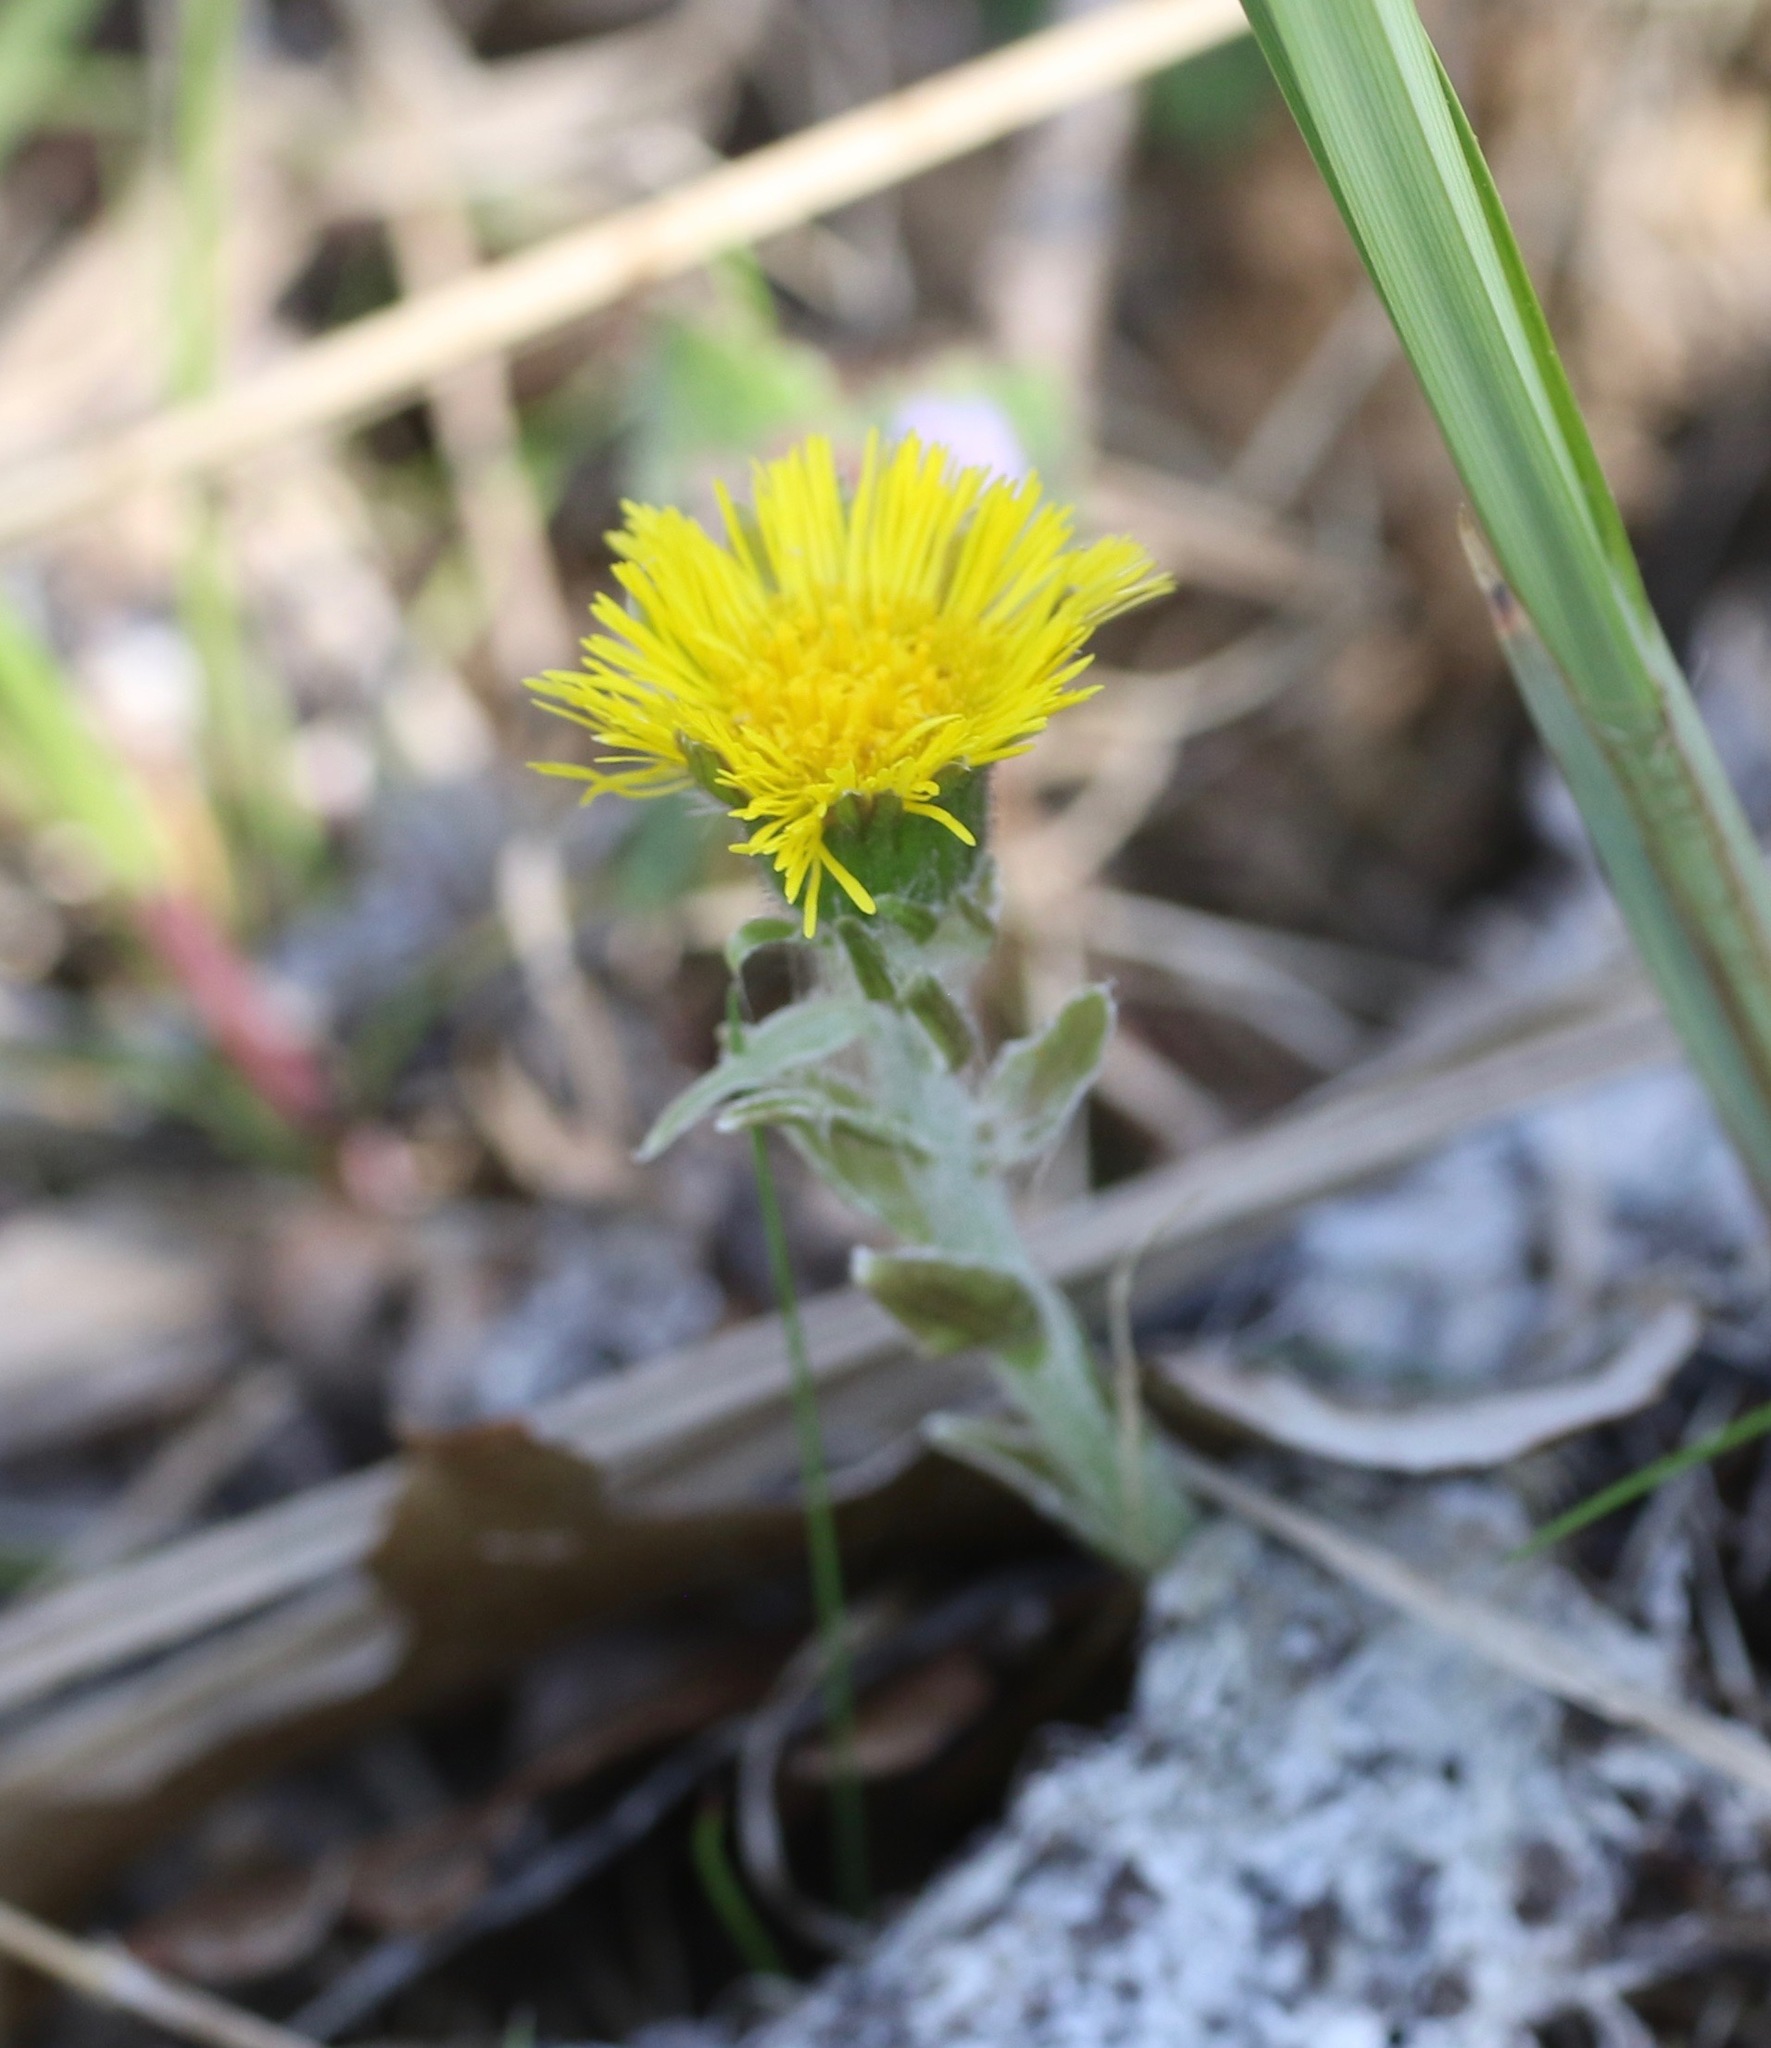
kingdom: Plantae
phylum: Tracheophyta
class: Magnoliopsida
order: Asterales
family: Asteraceae
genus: Tussilago
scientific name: Tussilago farfara
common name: Coltsfoot
